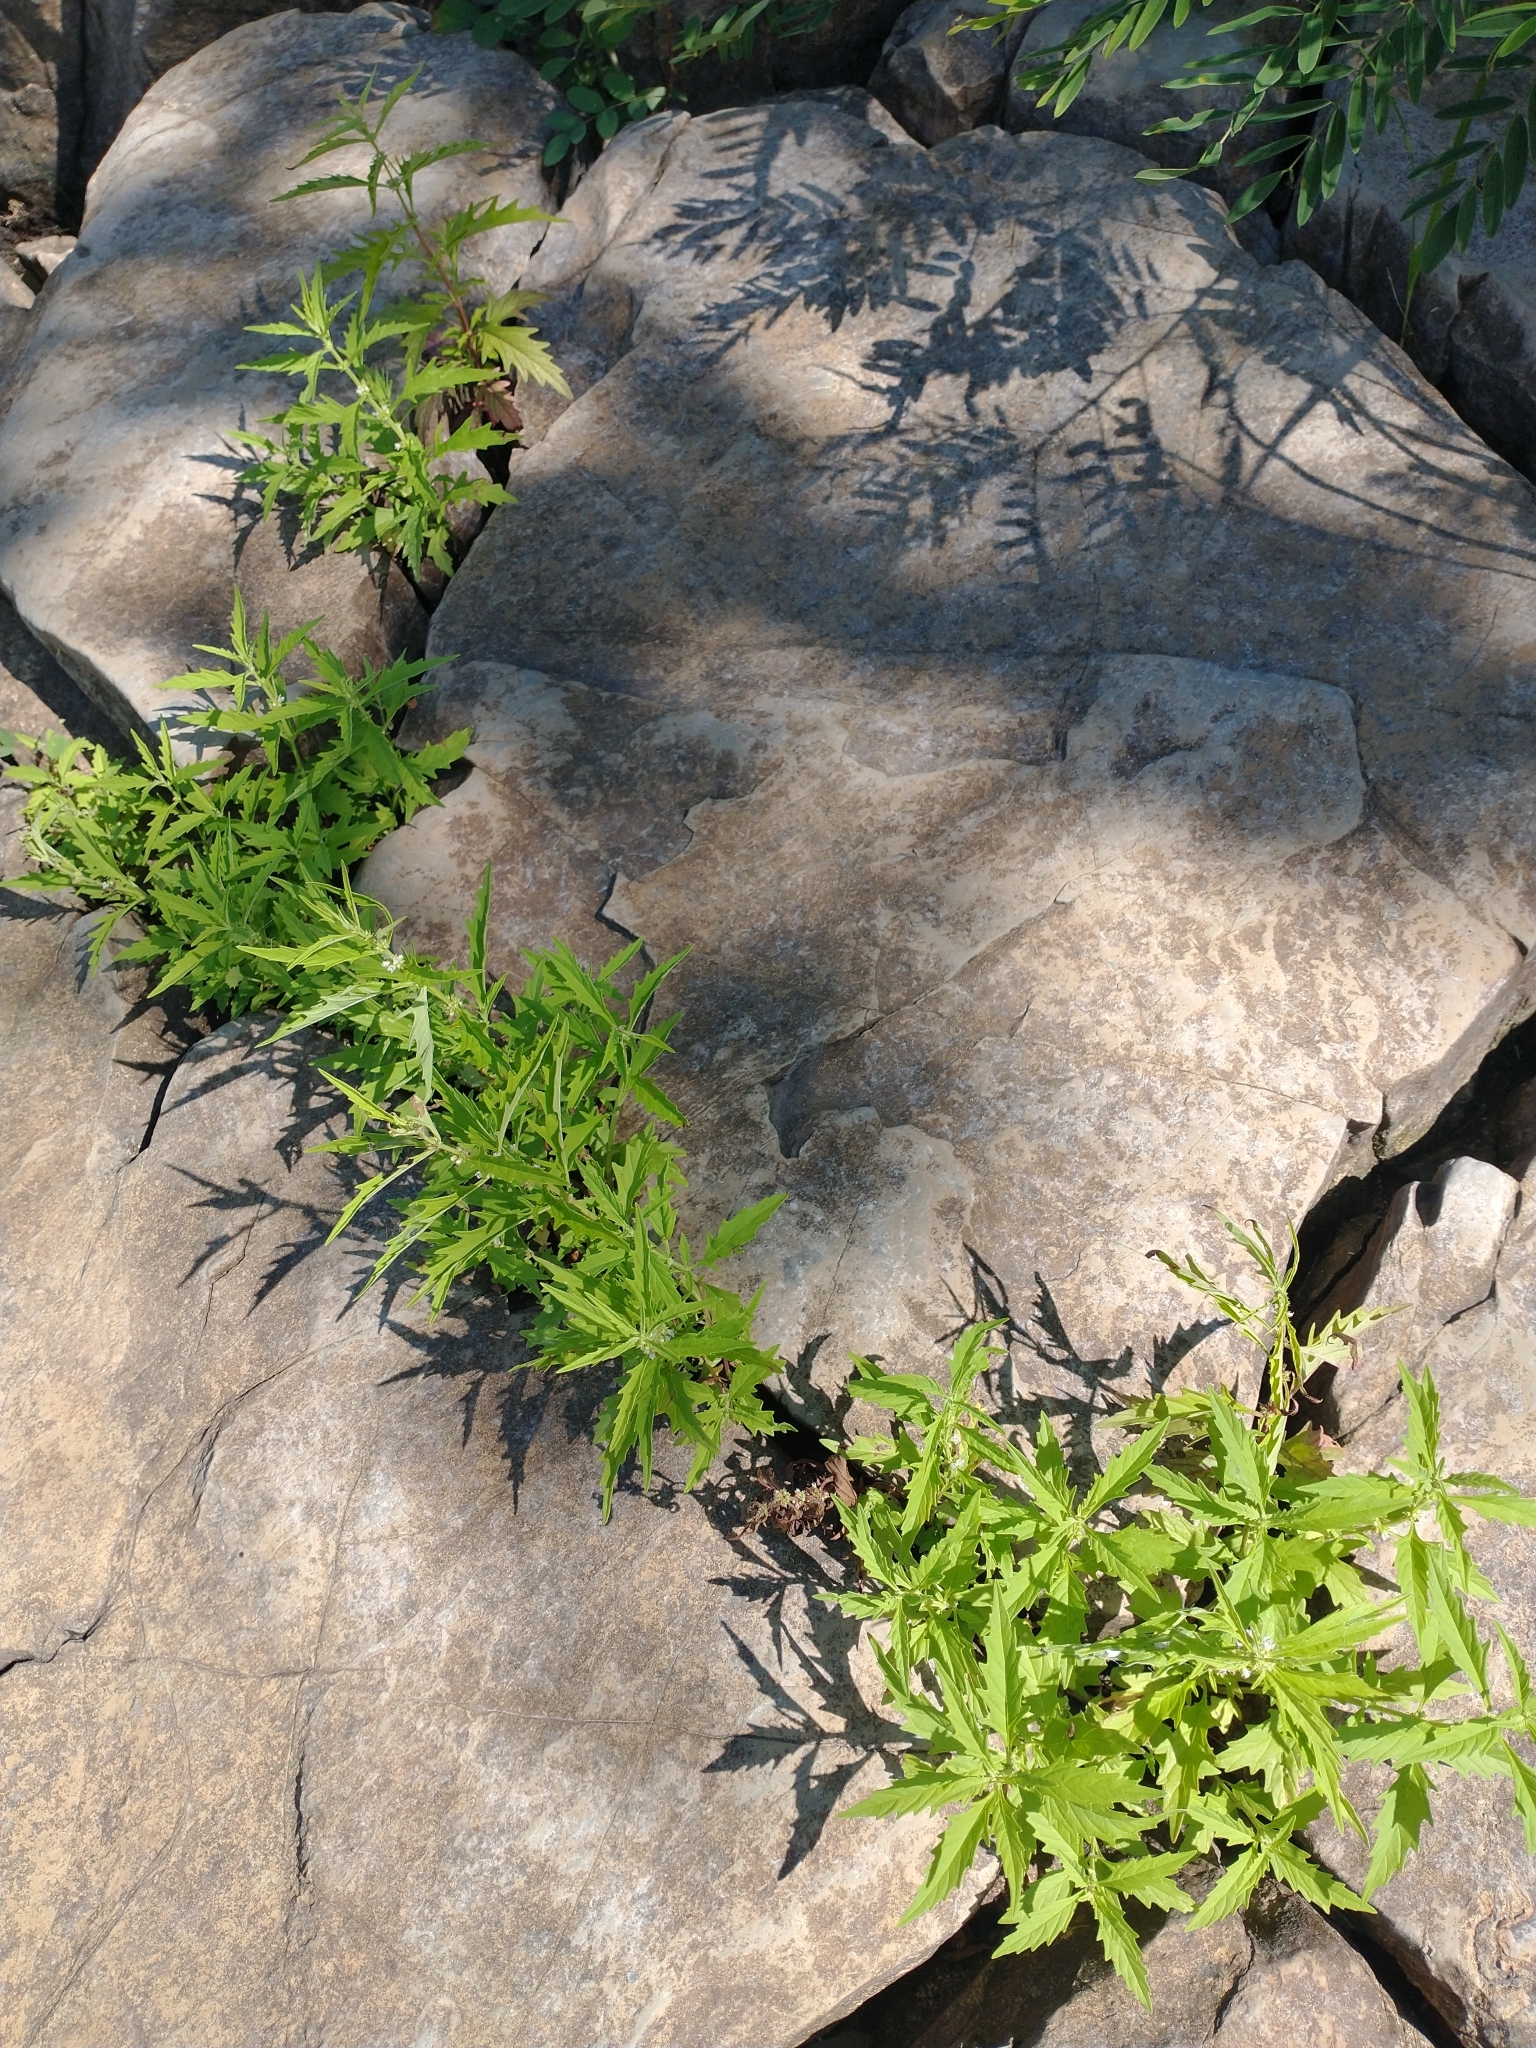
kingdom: Plantae
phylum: Tracheophyta
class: Magnoliopsida
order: Lamiales
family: Lamiaceae
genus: Lycopus
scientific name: Lycopus americanus
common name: American bugleweed
